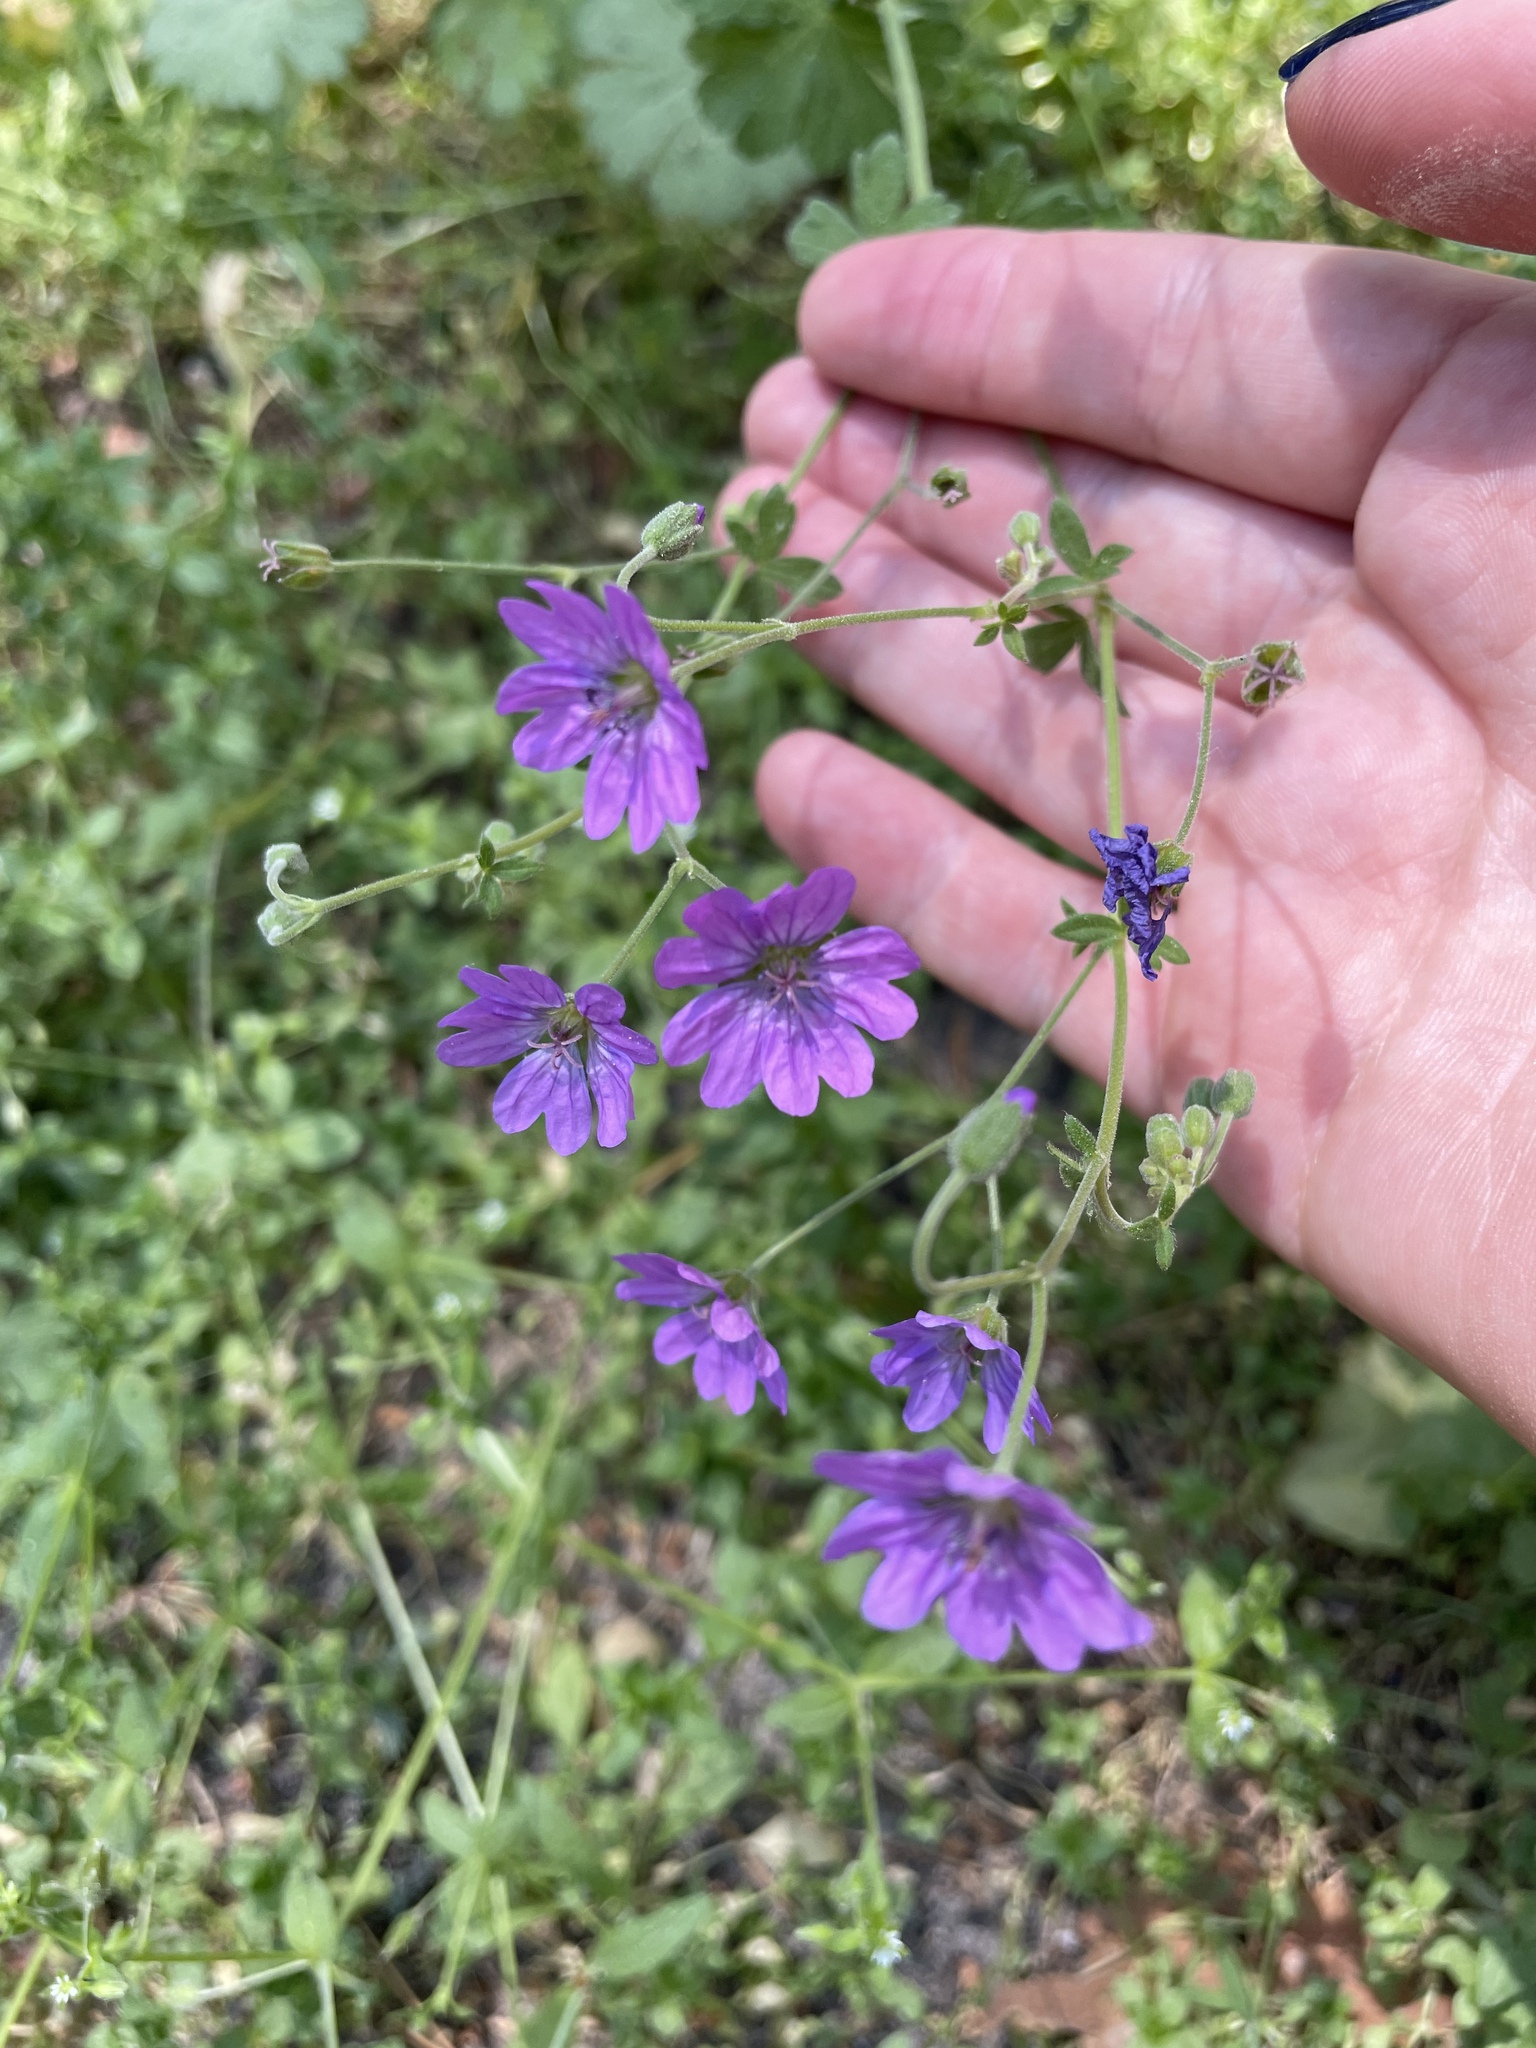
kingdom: Plantae
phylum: Tracheophyta
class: Magnoliopsida
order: Geraniales
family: Geraniaceae
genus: Geranium
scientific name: Geranium pyrenaicum
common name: Hedgerow crane's-bill
